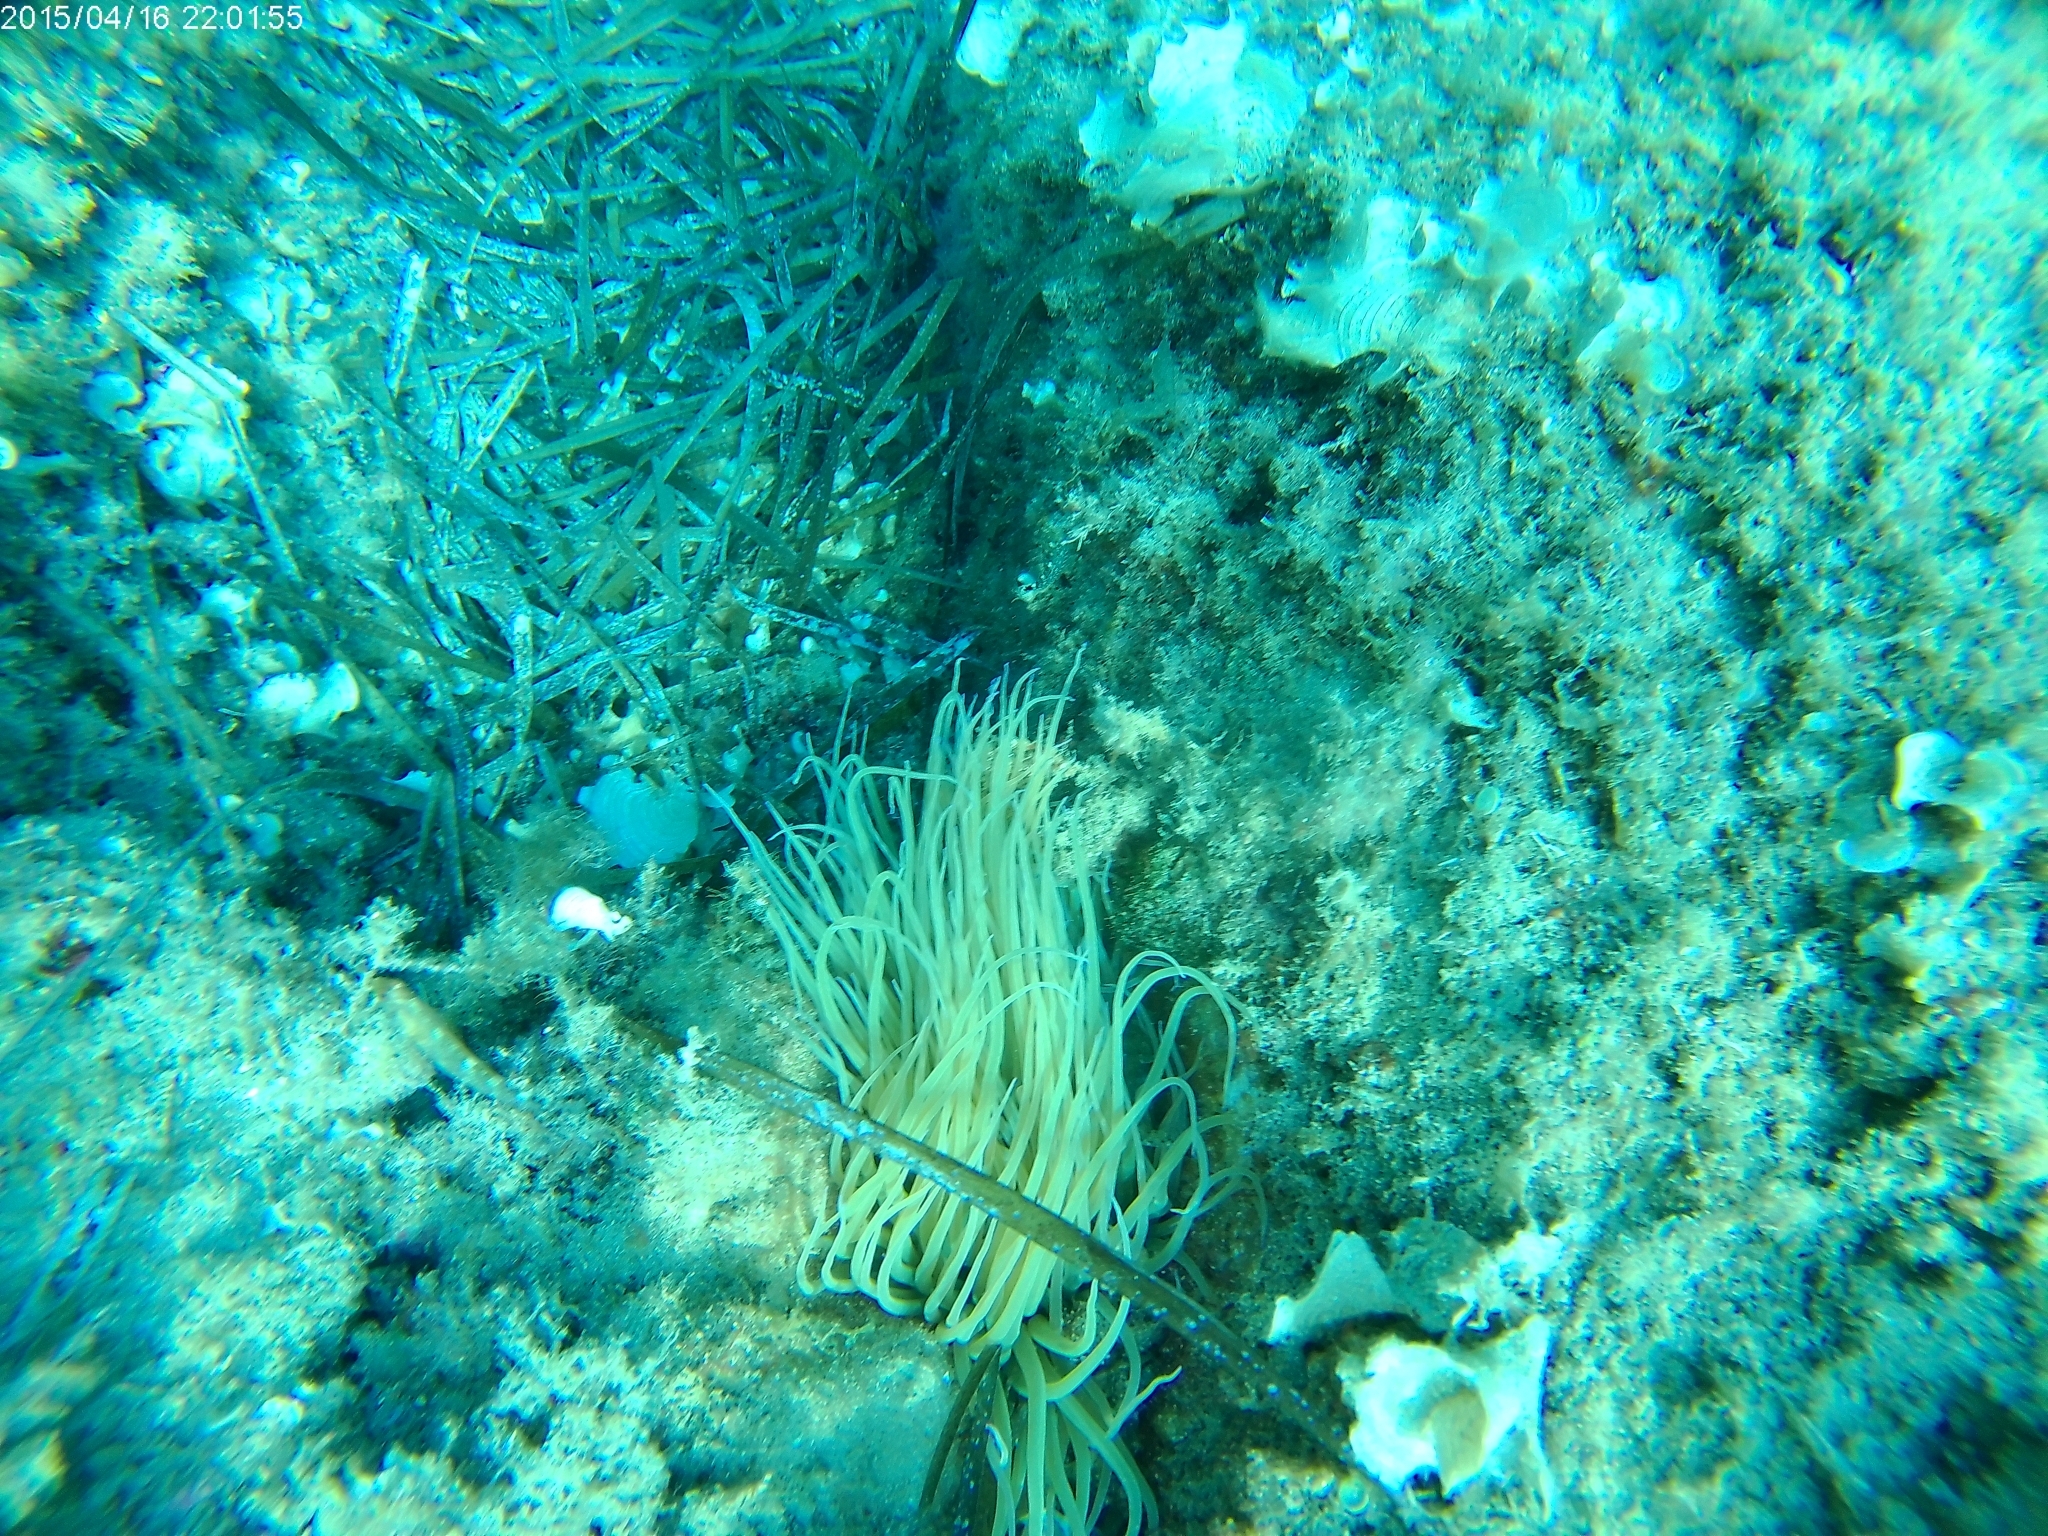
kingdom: Animalia
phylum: Cnidaria
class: Anthozoa
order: Actiniaria
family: Actiniidae
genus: Anemonia
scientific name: Anemonia viridis
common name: Snakelocks anemone
